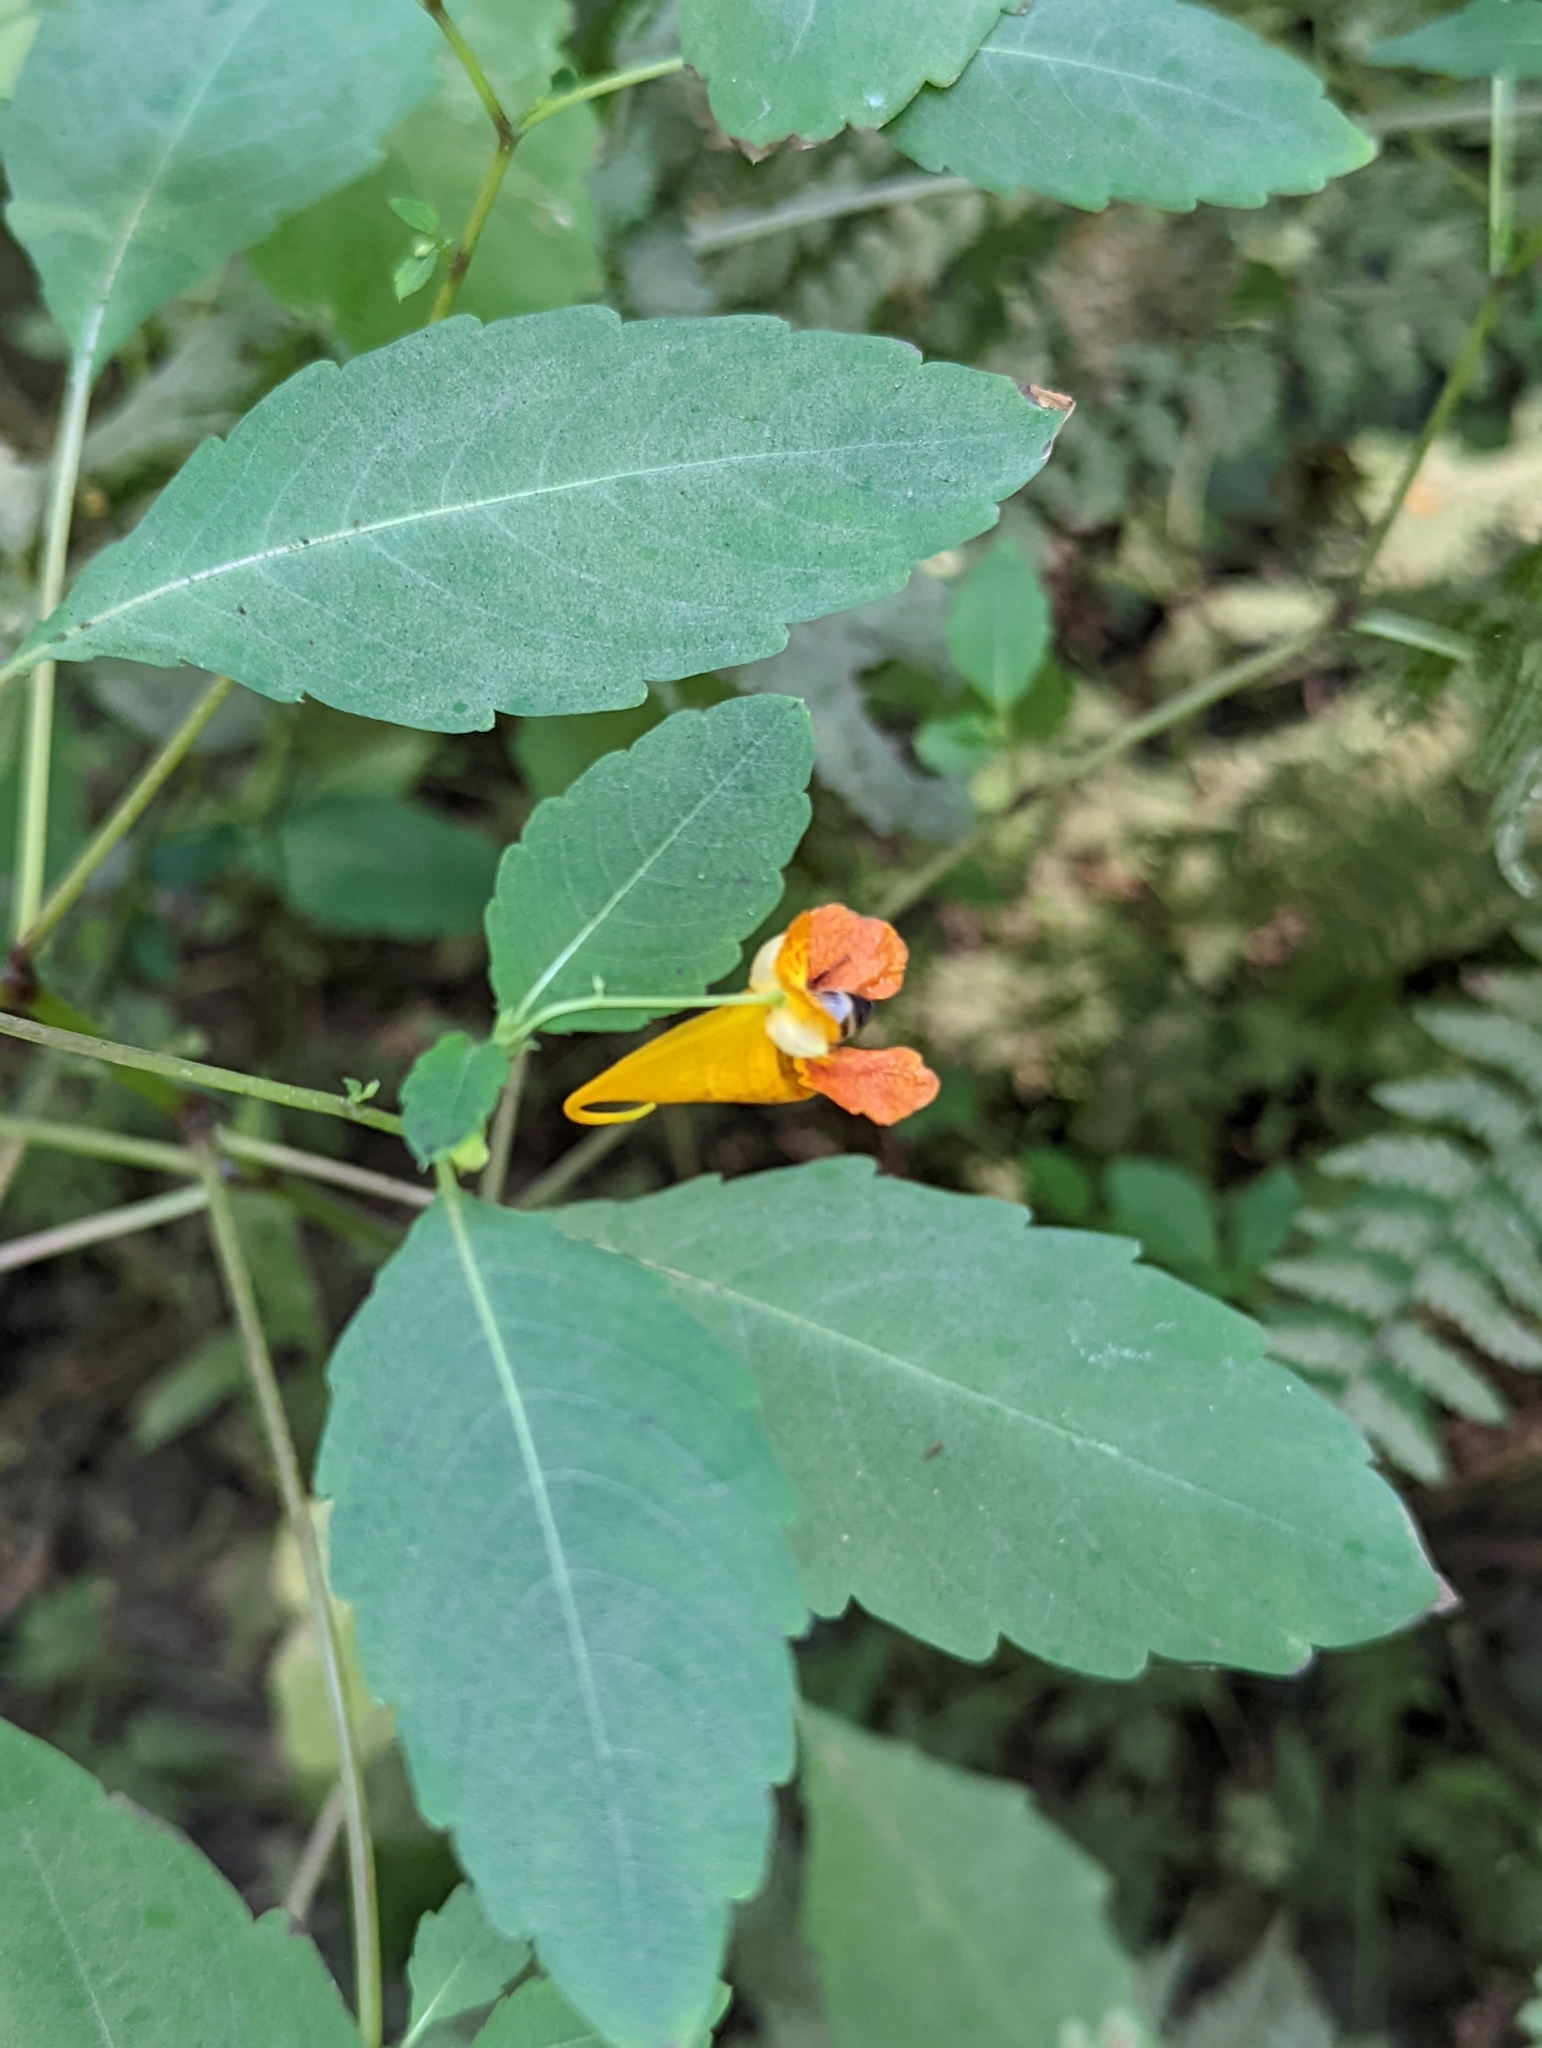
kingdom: Plantae
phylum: Tracheophyta
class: Magnoliopsida
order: Ericales
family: Balsaminaceae
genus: Impatiens
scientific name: Impatiens capensis
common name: Orange balsam
